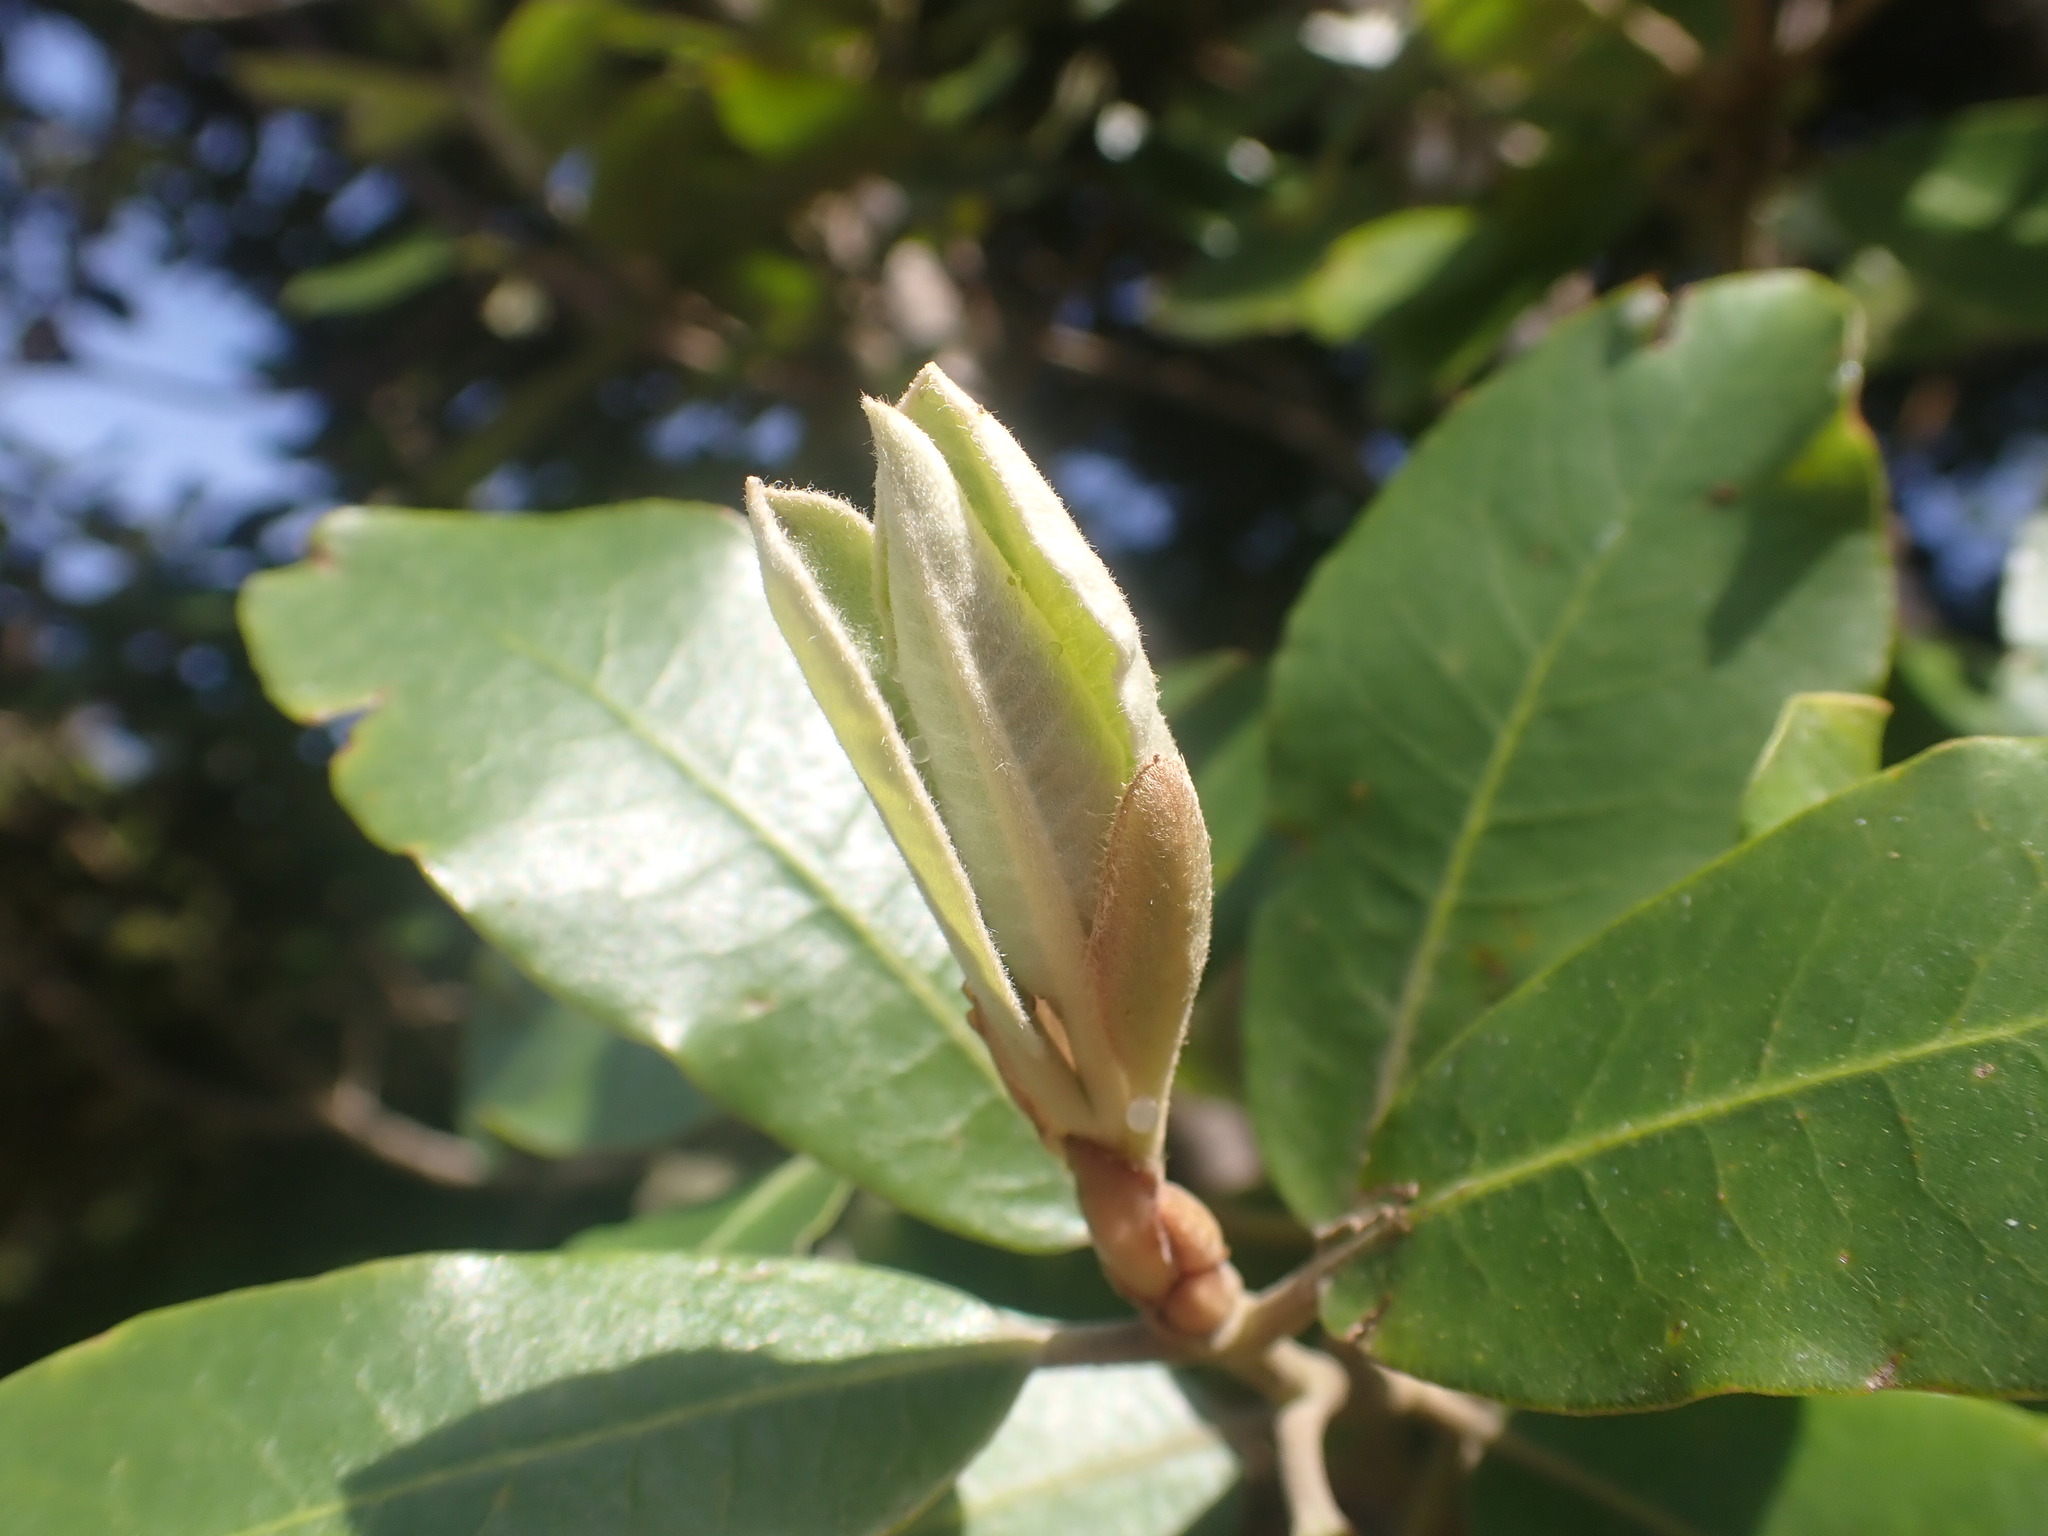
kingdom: Plantae
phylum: Tracheophyta
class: Magnoliopsida
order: Apiales
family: Pittosporaceae
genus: Pittosporum
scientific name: Pittosporum ralphii
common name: Ralph's desertwillow
